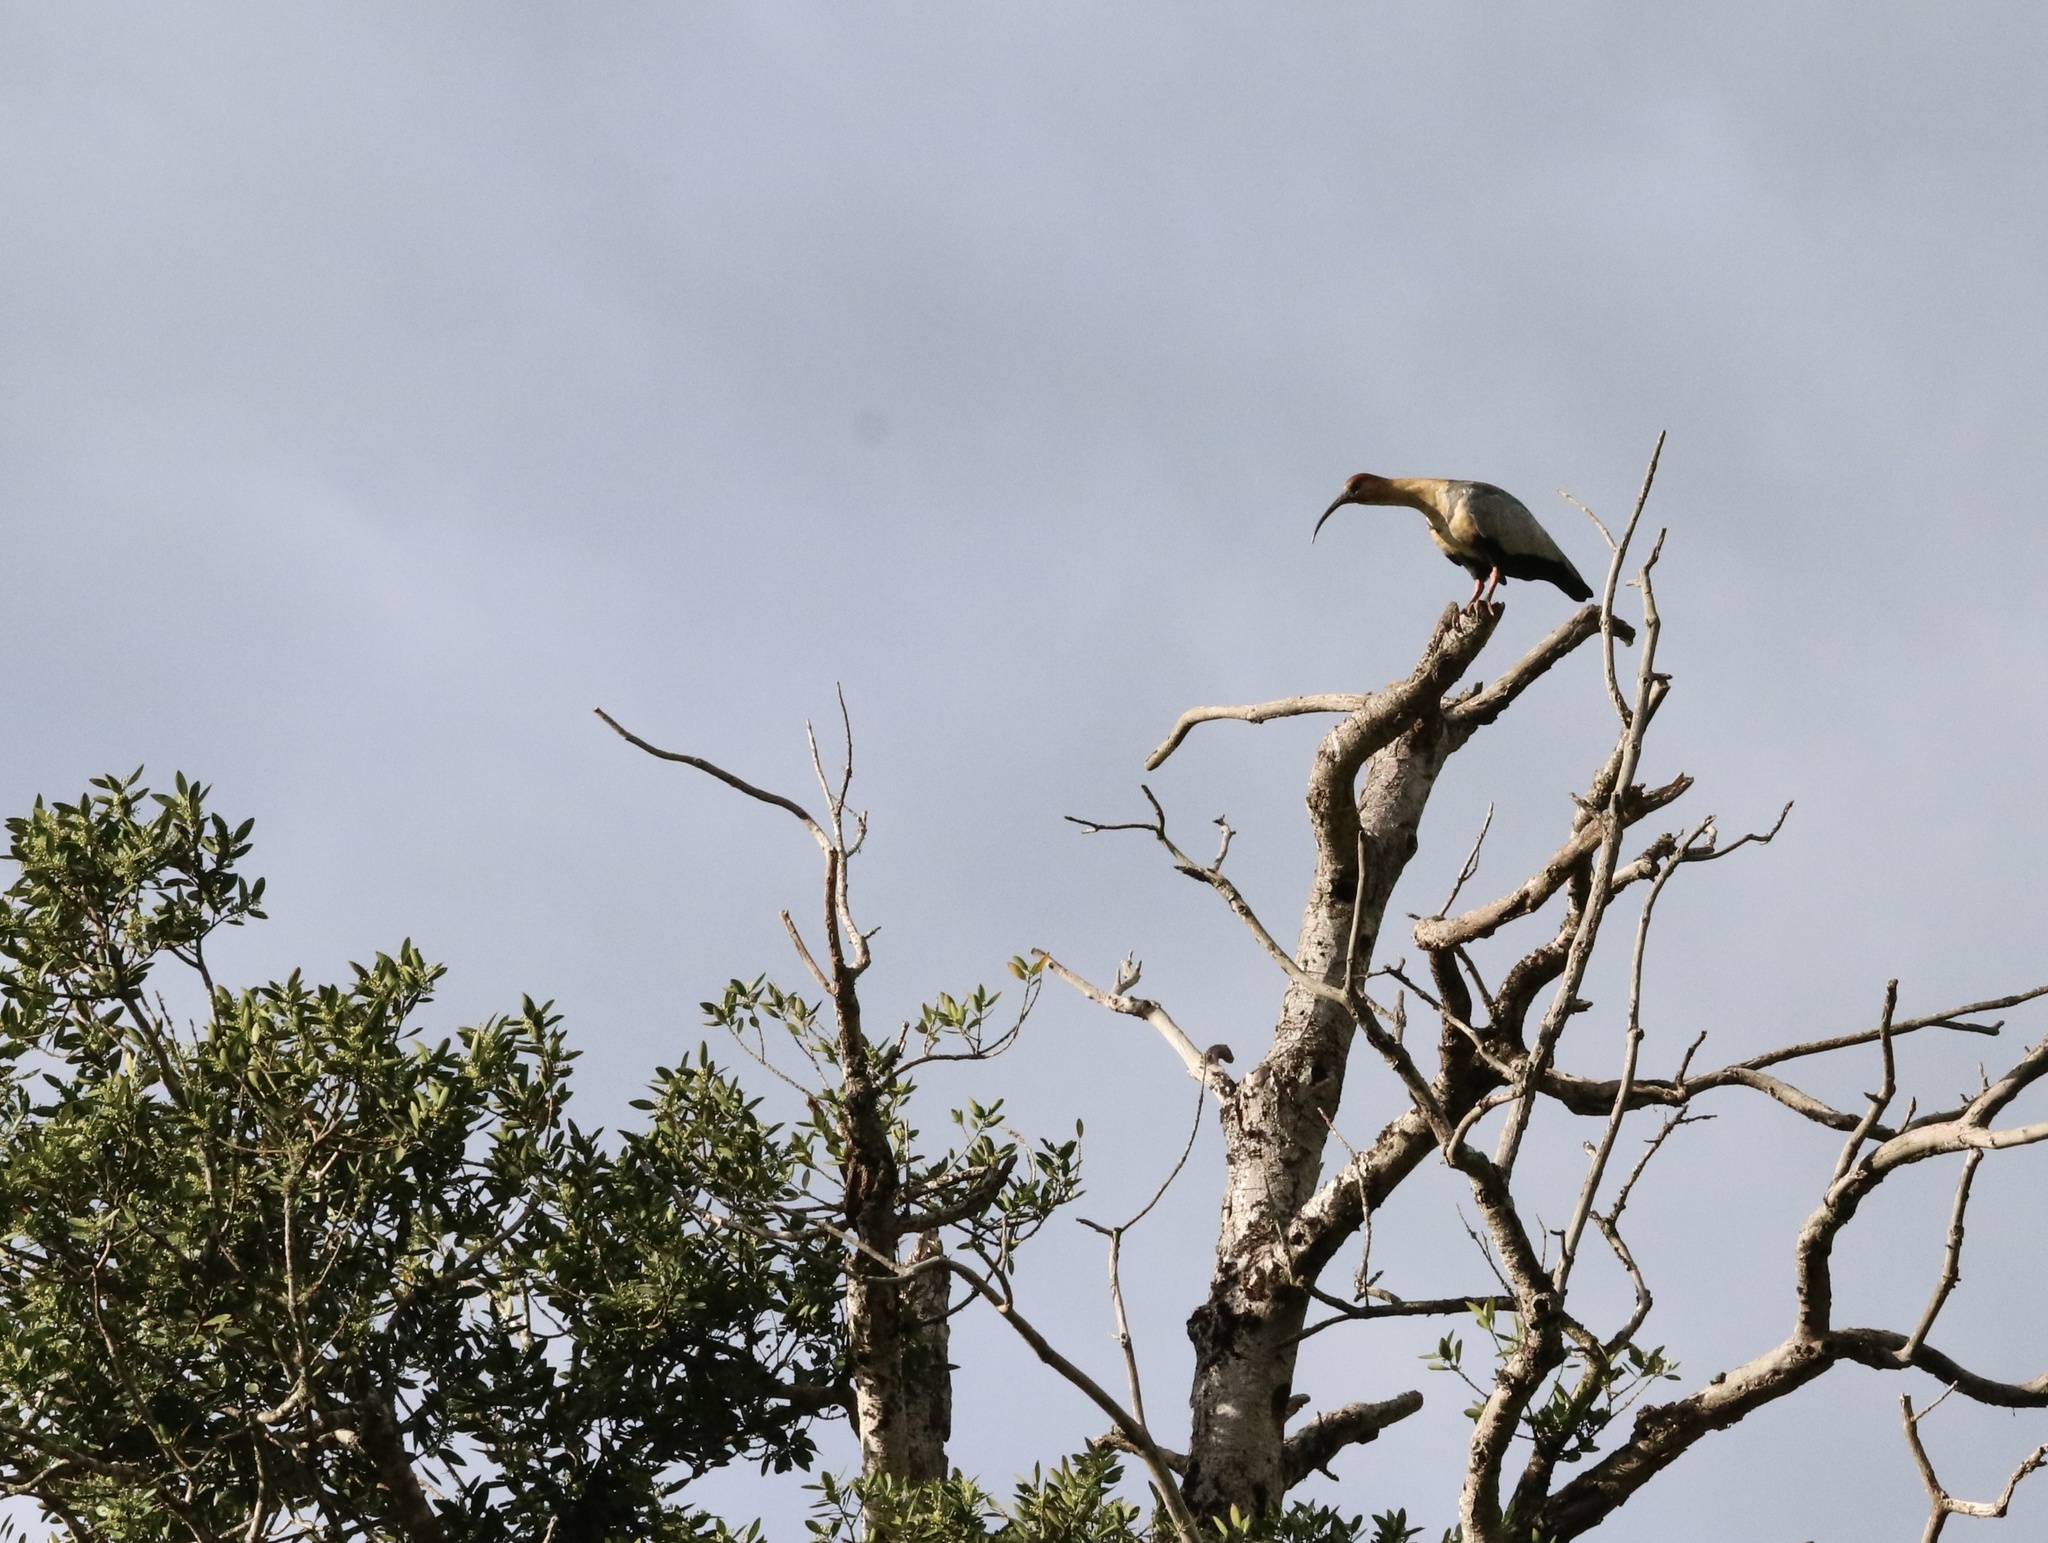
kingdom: Animalia
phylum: Chordata
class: Aves
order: Pelecaniformes
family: Threskiornithidae
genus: Theristicus
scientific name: Theristicus melanopis
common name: Black-faced ibis
